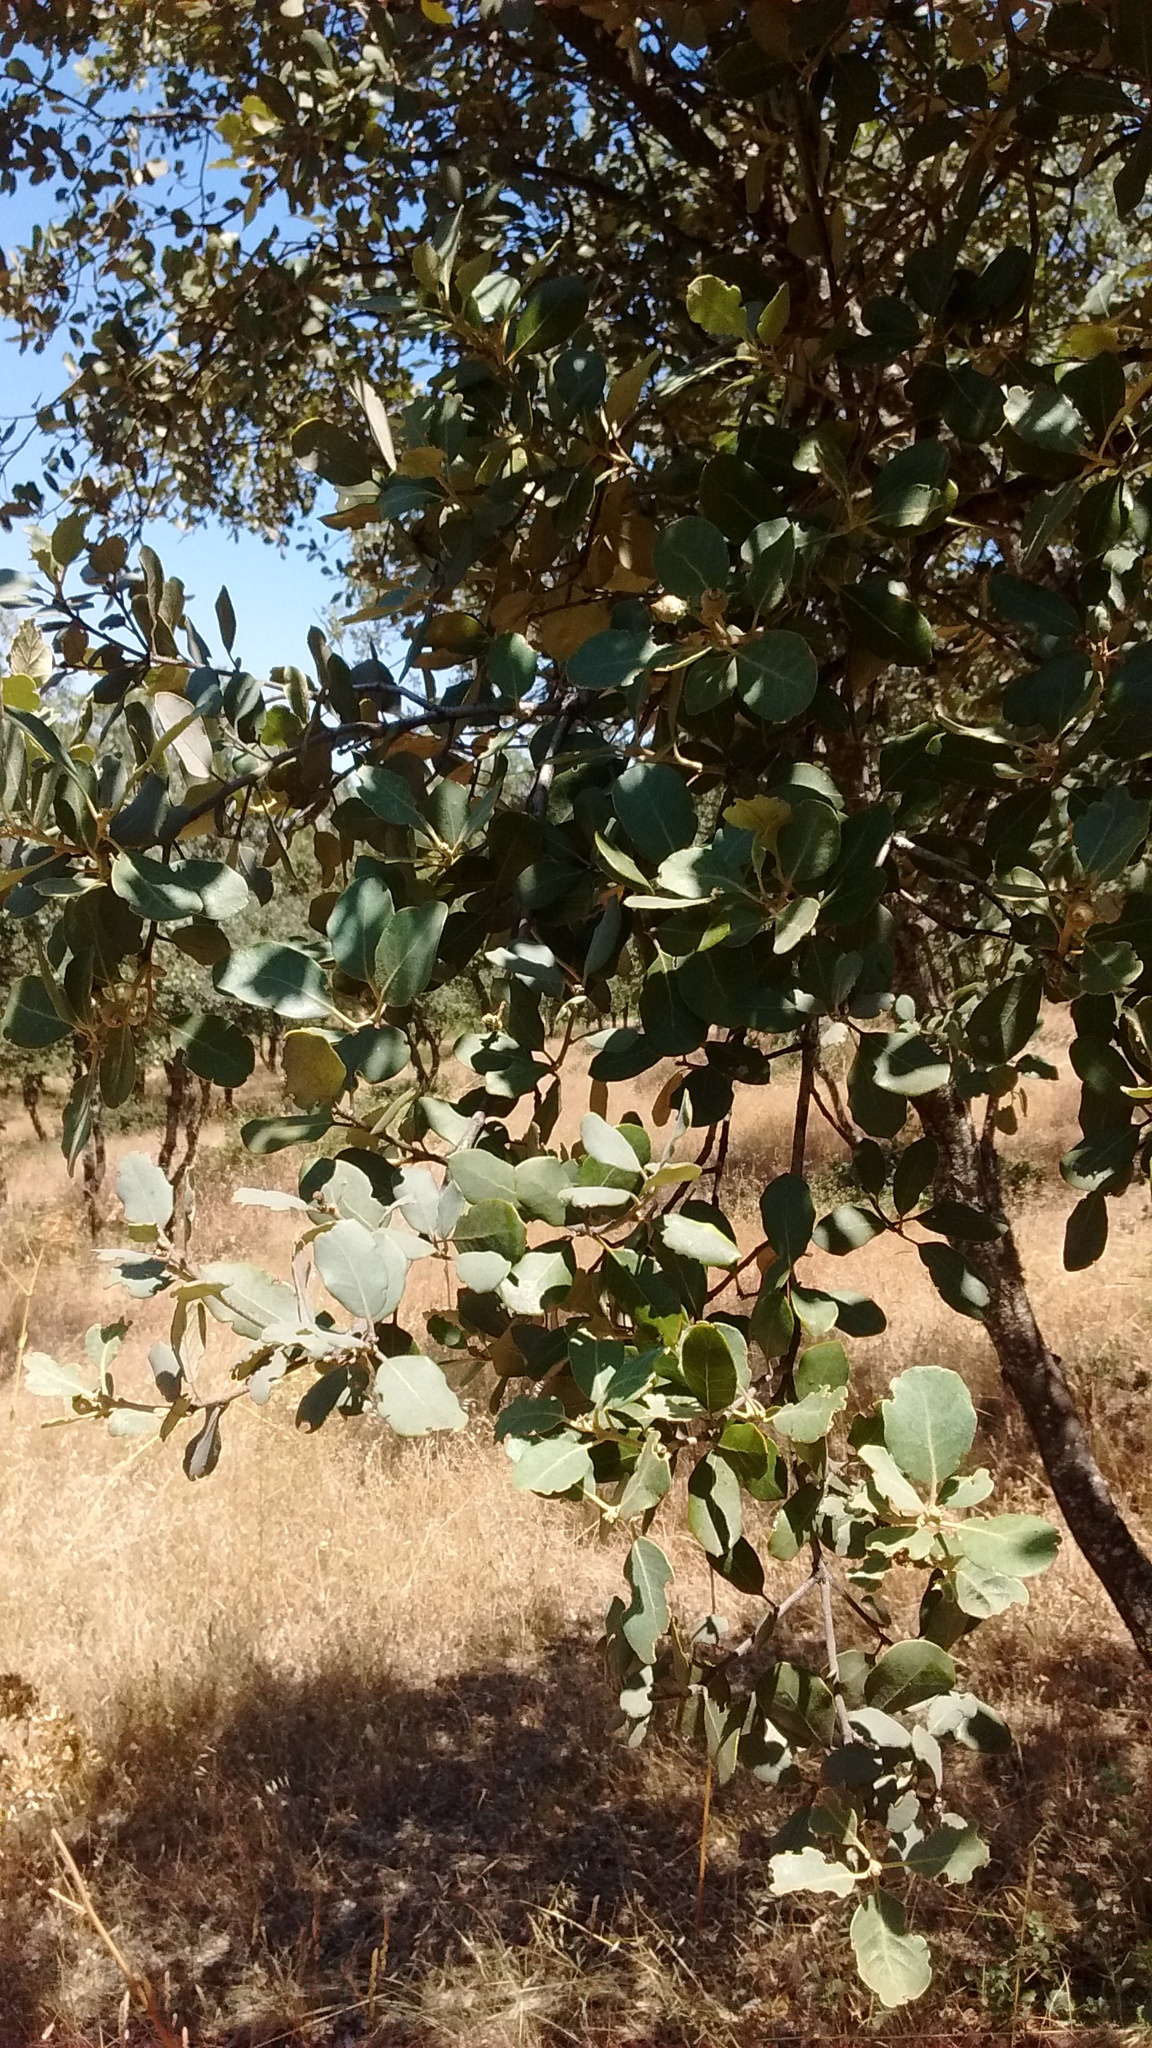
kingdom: Plantae
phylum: Tracheophyta
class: Magnoliopsida
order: Fagales
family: Fagaceae
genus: Quercus
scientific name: Quercus rotundifolia
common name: Holm oak
